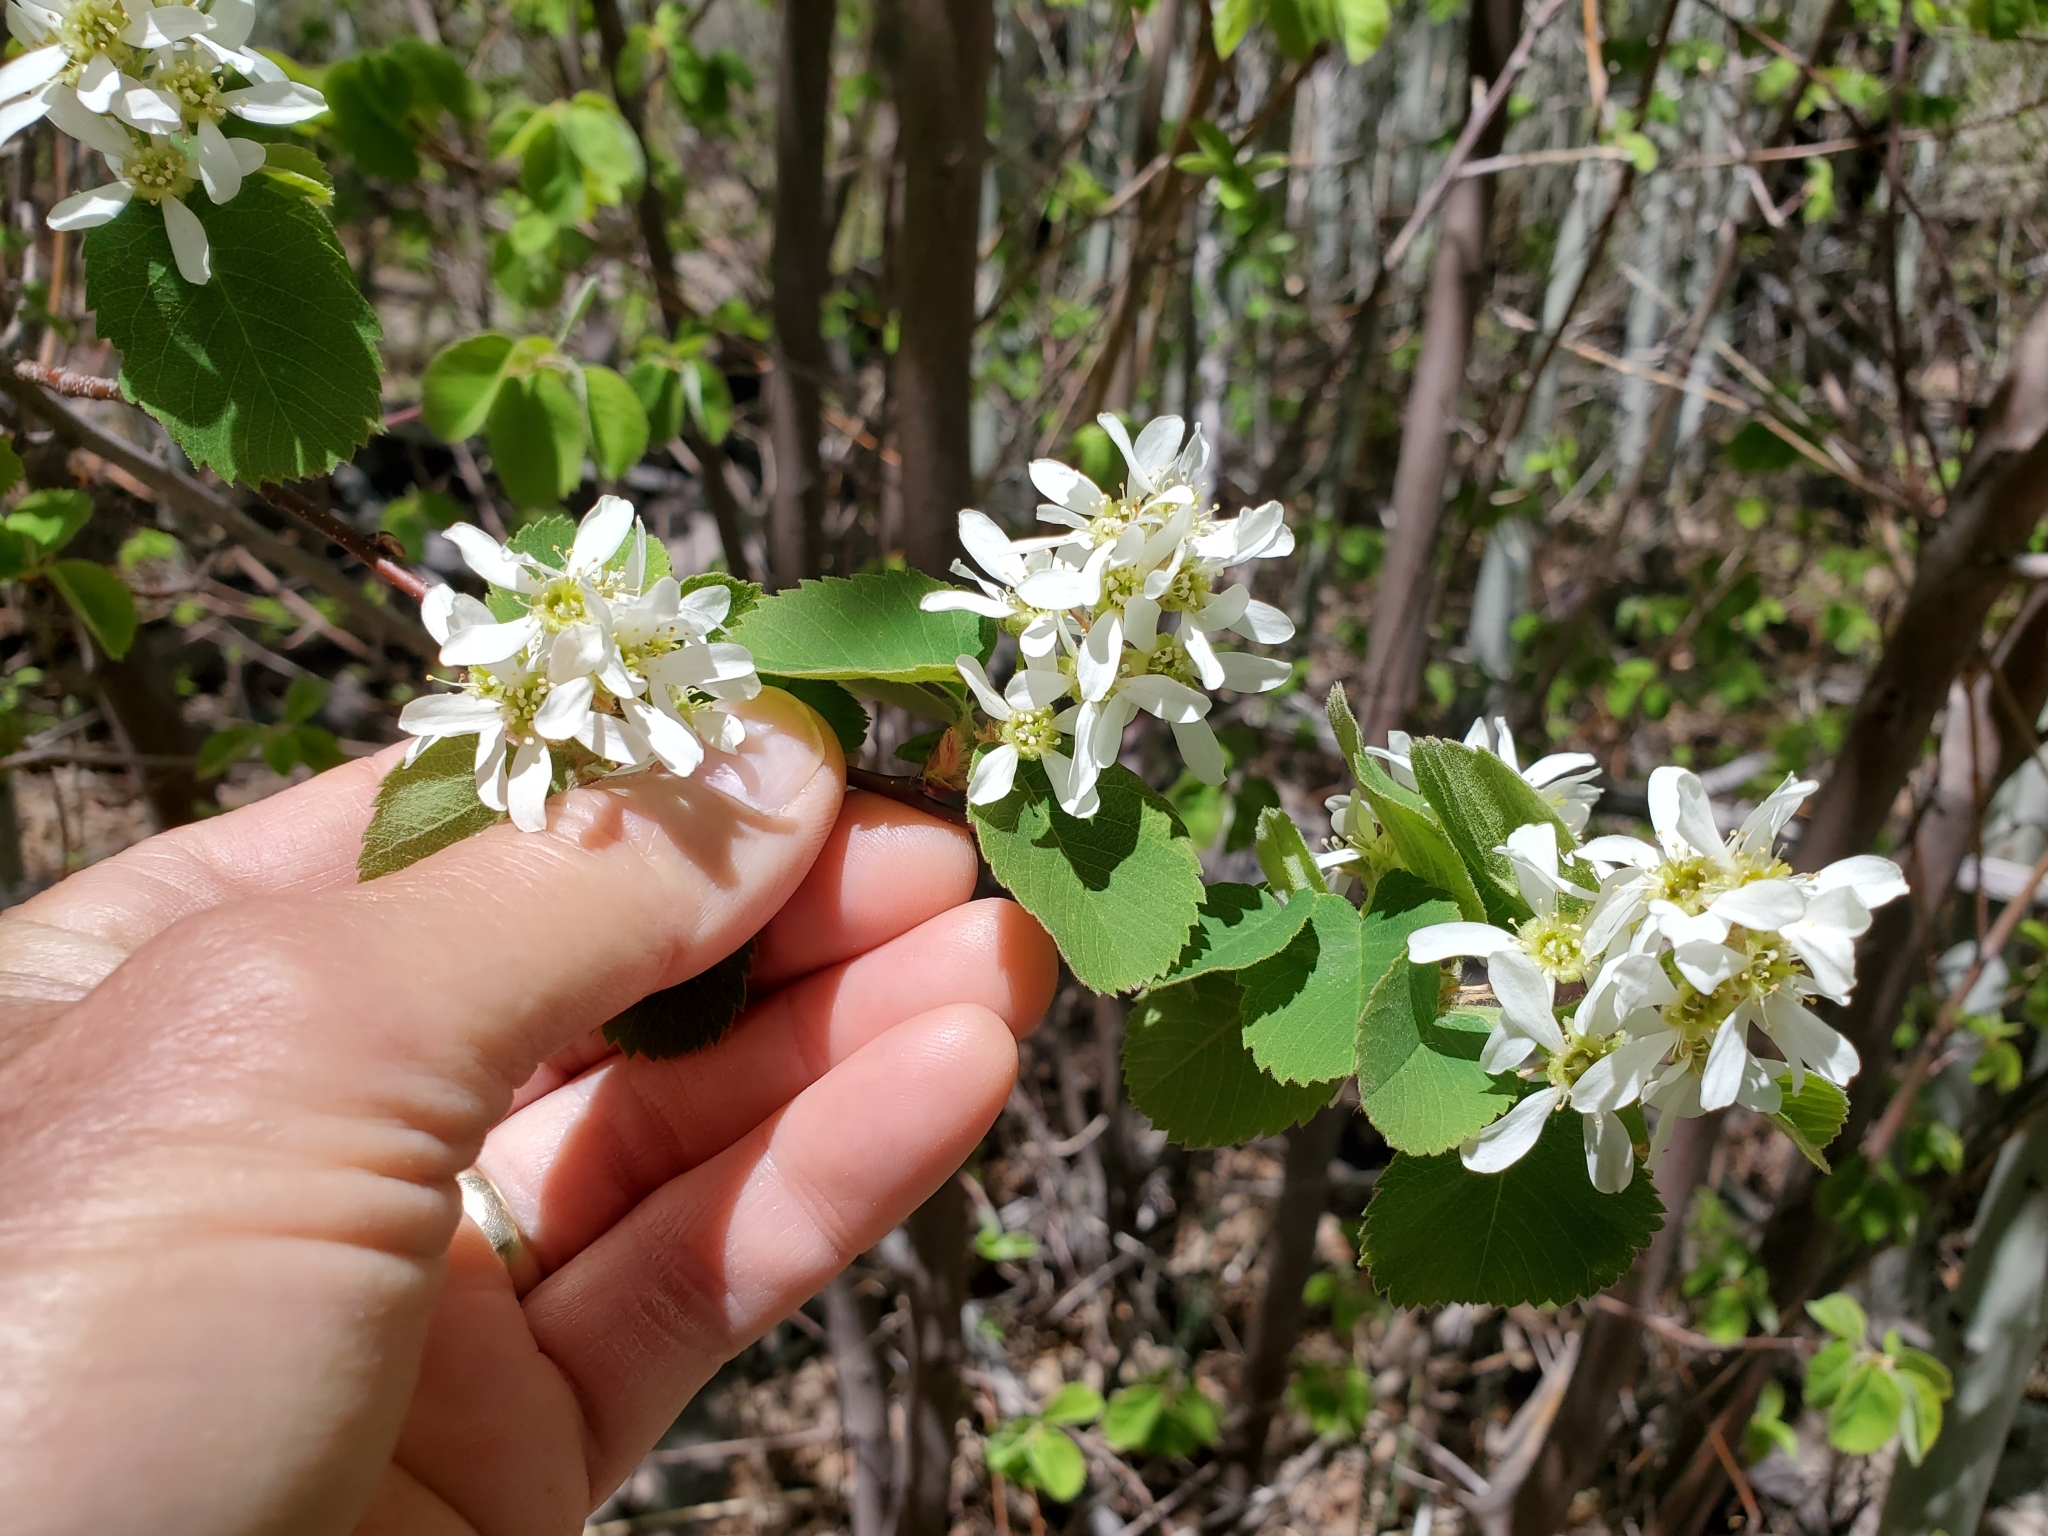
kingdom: Plantae
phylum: Tracheophyta
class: Magnoliopsida
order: Rosales
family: Rosaceae
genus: Amelanchier
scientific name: Amelanchier utahensis
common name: Utah serviceberry
